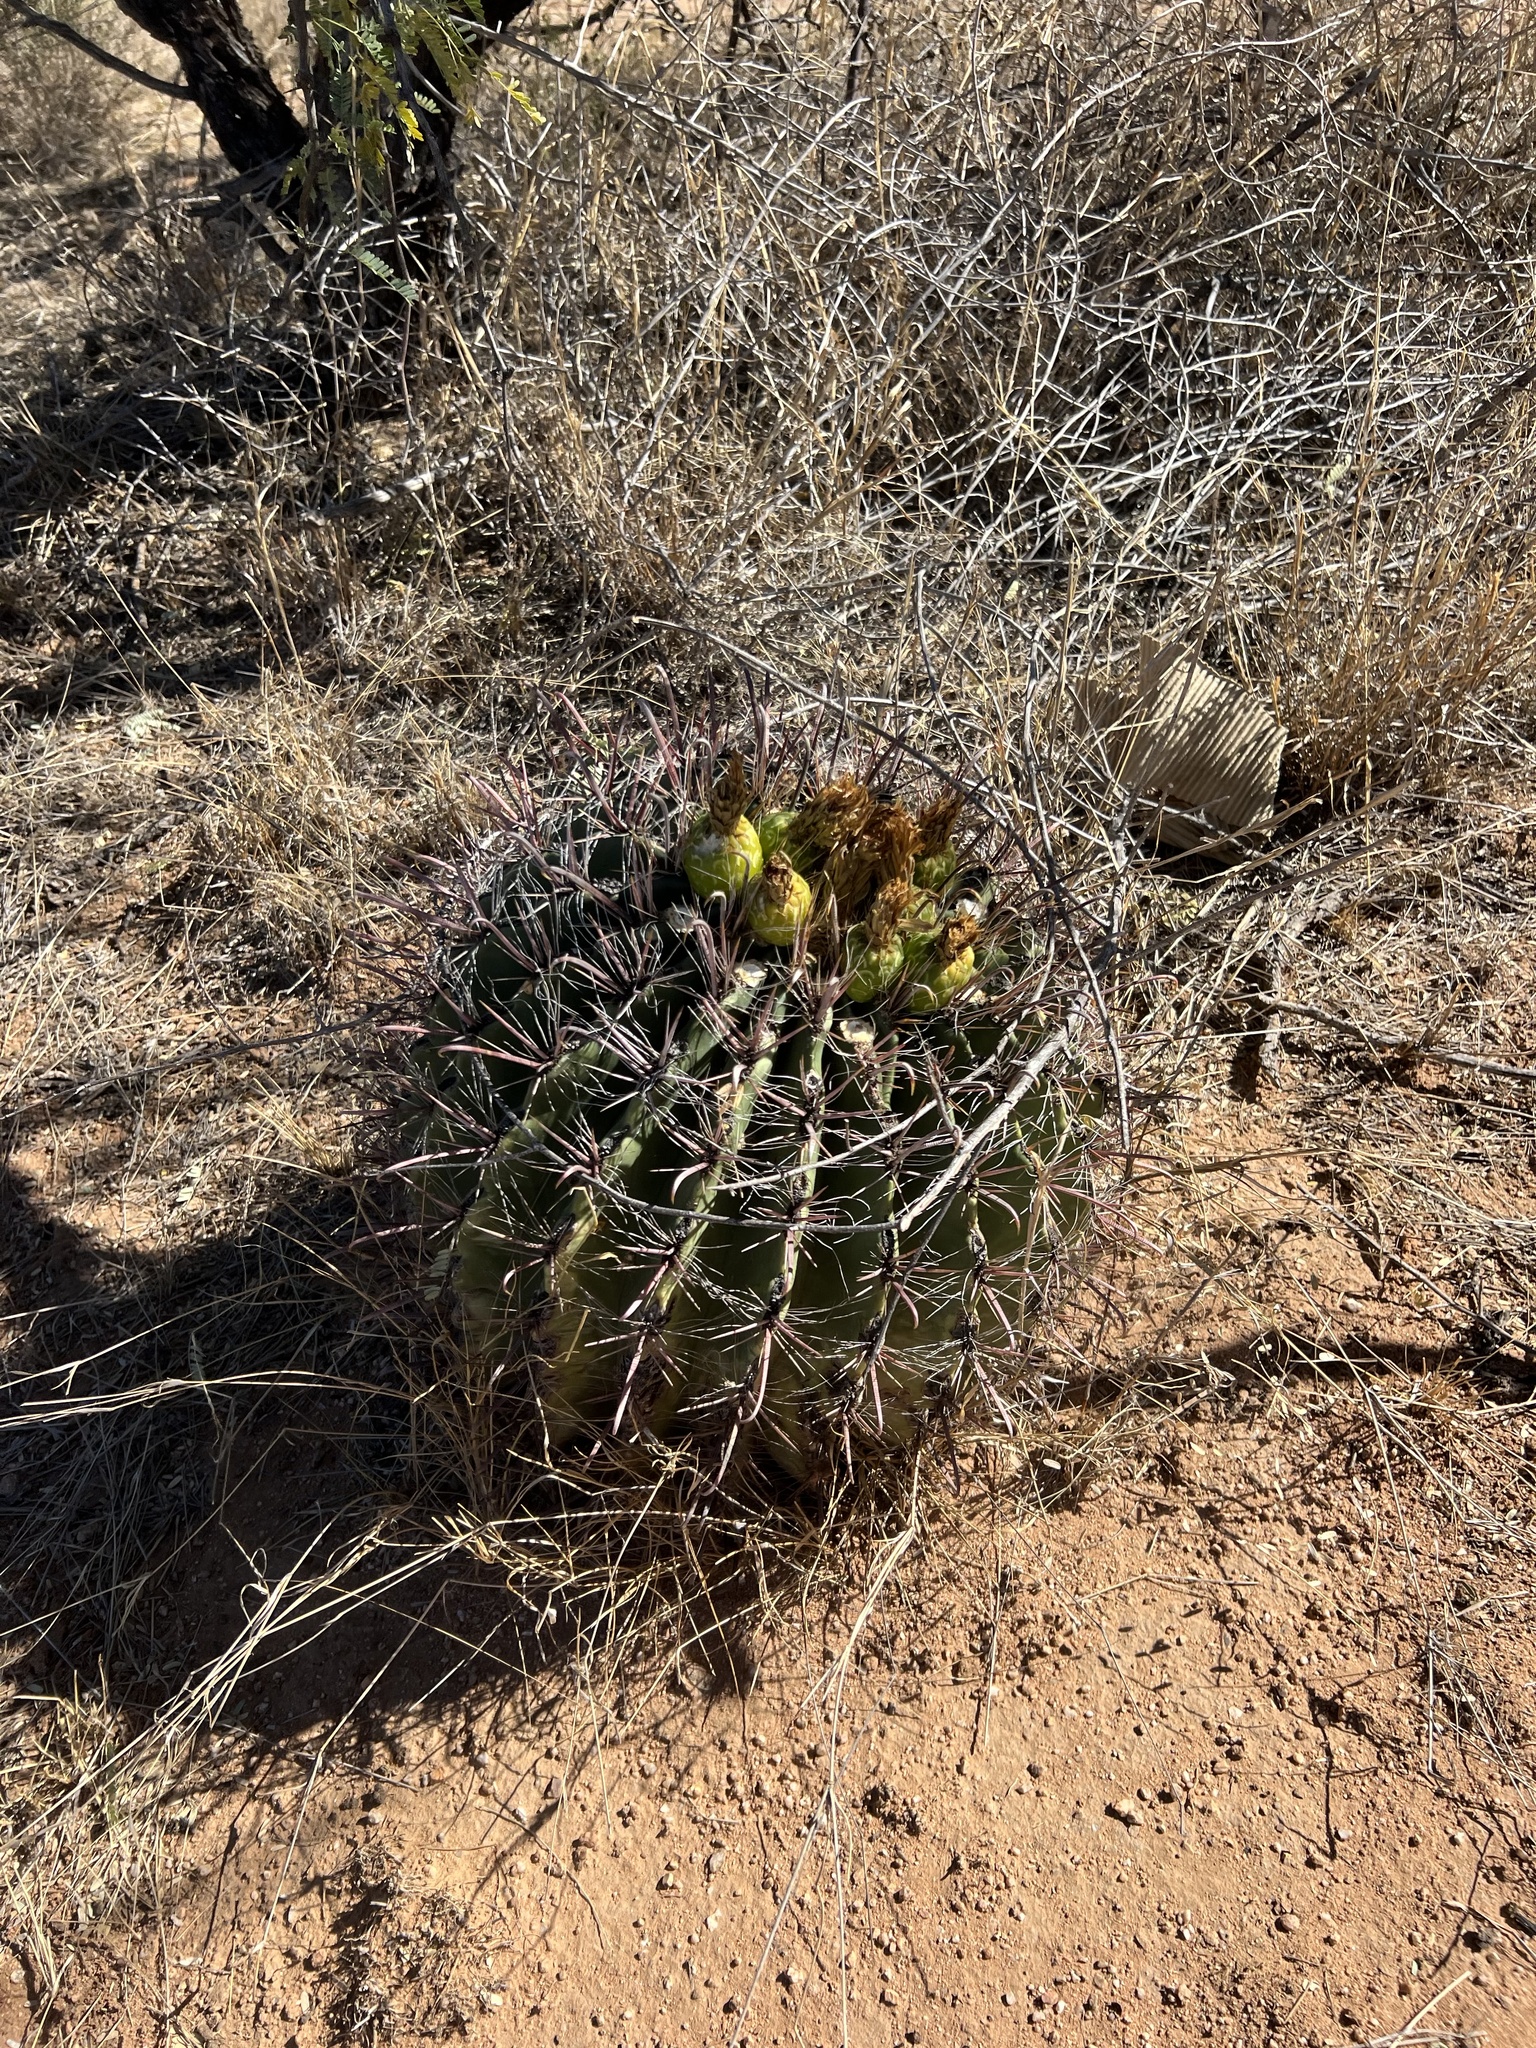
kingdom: Plantae
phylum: Tracheophyta
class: Magnoliopsida
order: Caryophyllales
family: Cactaceae
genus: Ferocactus
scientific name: Ferocactus wislizeni
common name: Candy barrel cactus
